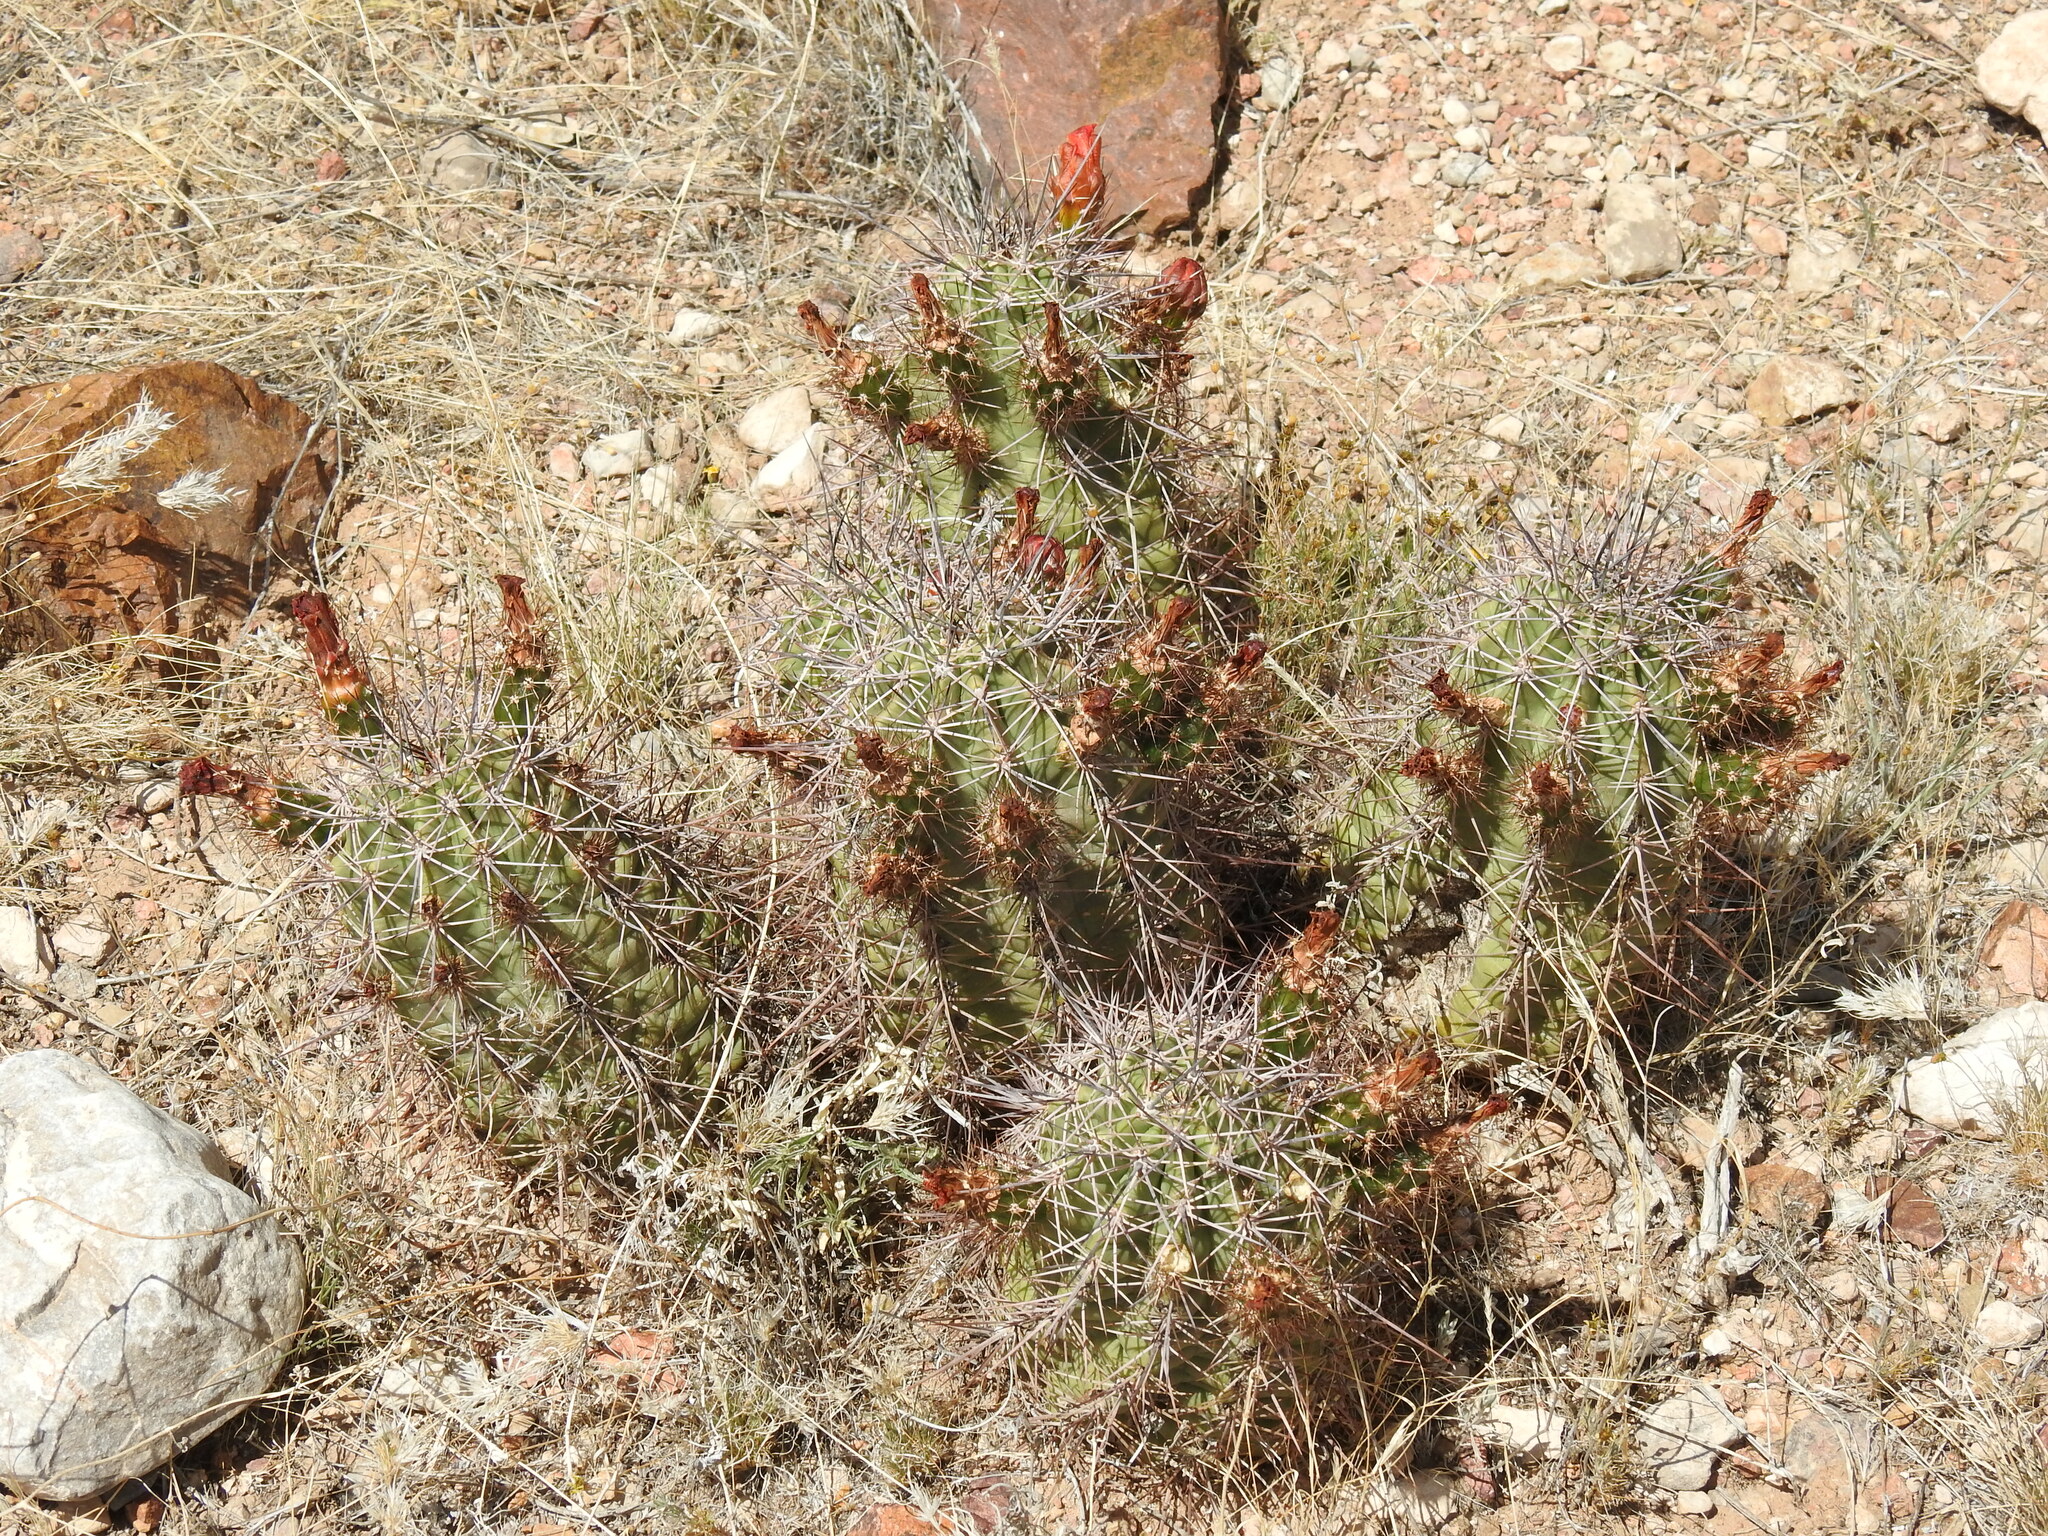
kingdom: Plantae
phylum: Tracheophyta
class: Magnoliopsida
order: Caryophyllales
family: Cactaceae
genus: Echinocereus
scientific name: Echinocereus coccineus
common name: Scarlet hedgehog cactus
